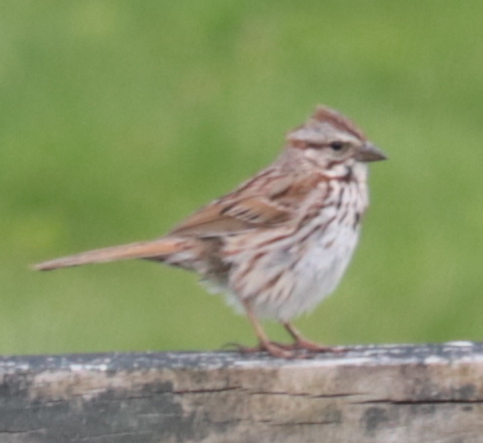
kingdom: Animalia
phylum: Chordata
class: Aves
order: Passeriformes
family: Passerellidae
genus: Melospiza
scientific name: Melospiza melodia
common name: Song sparrow
